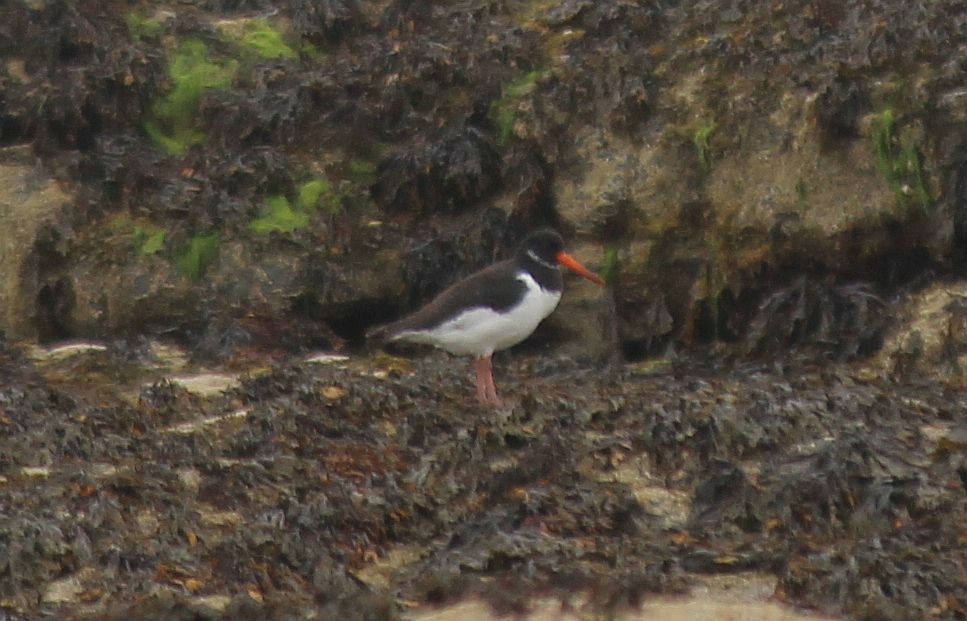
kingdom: Animalia
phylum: Chordata
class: Aves
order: Charadriiformes
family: Haematopodidae
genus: Haematopus
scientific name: Haematopus ostralegus
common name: Eurasian oystercatcher
